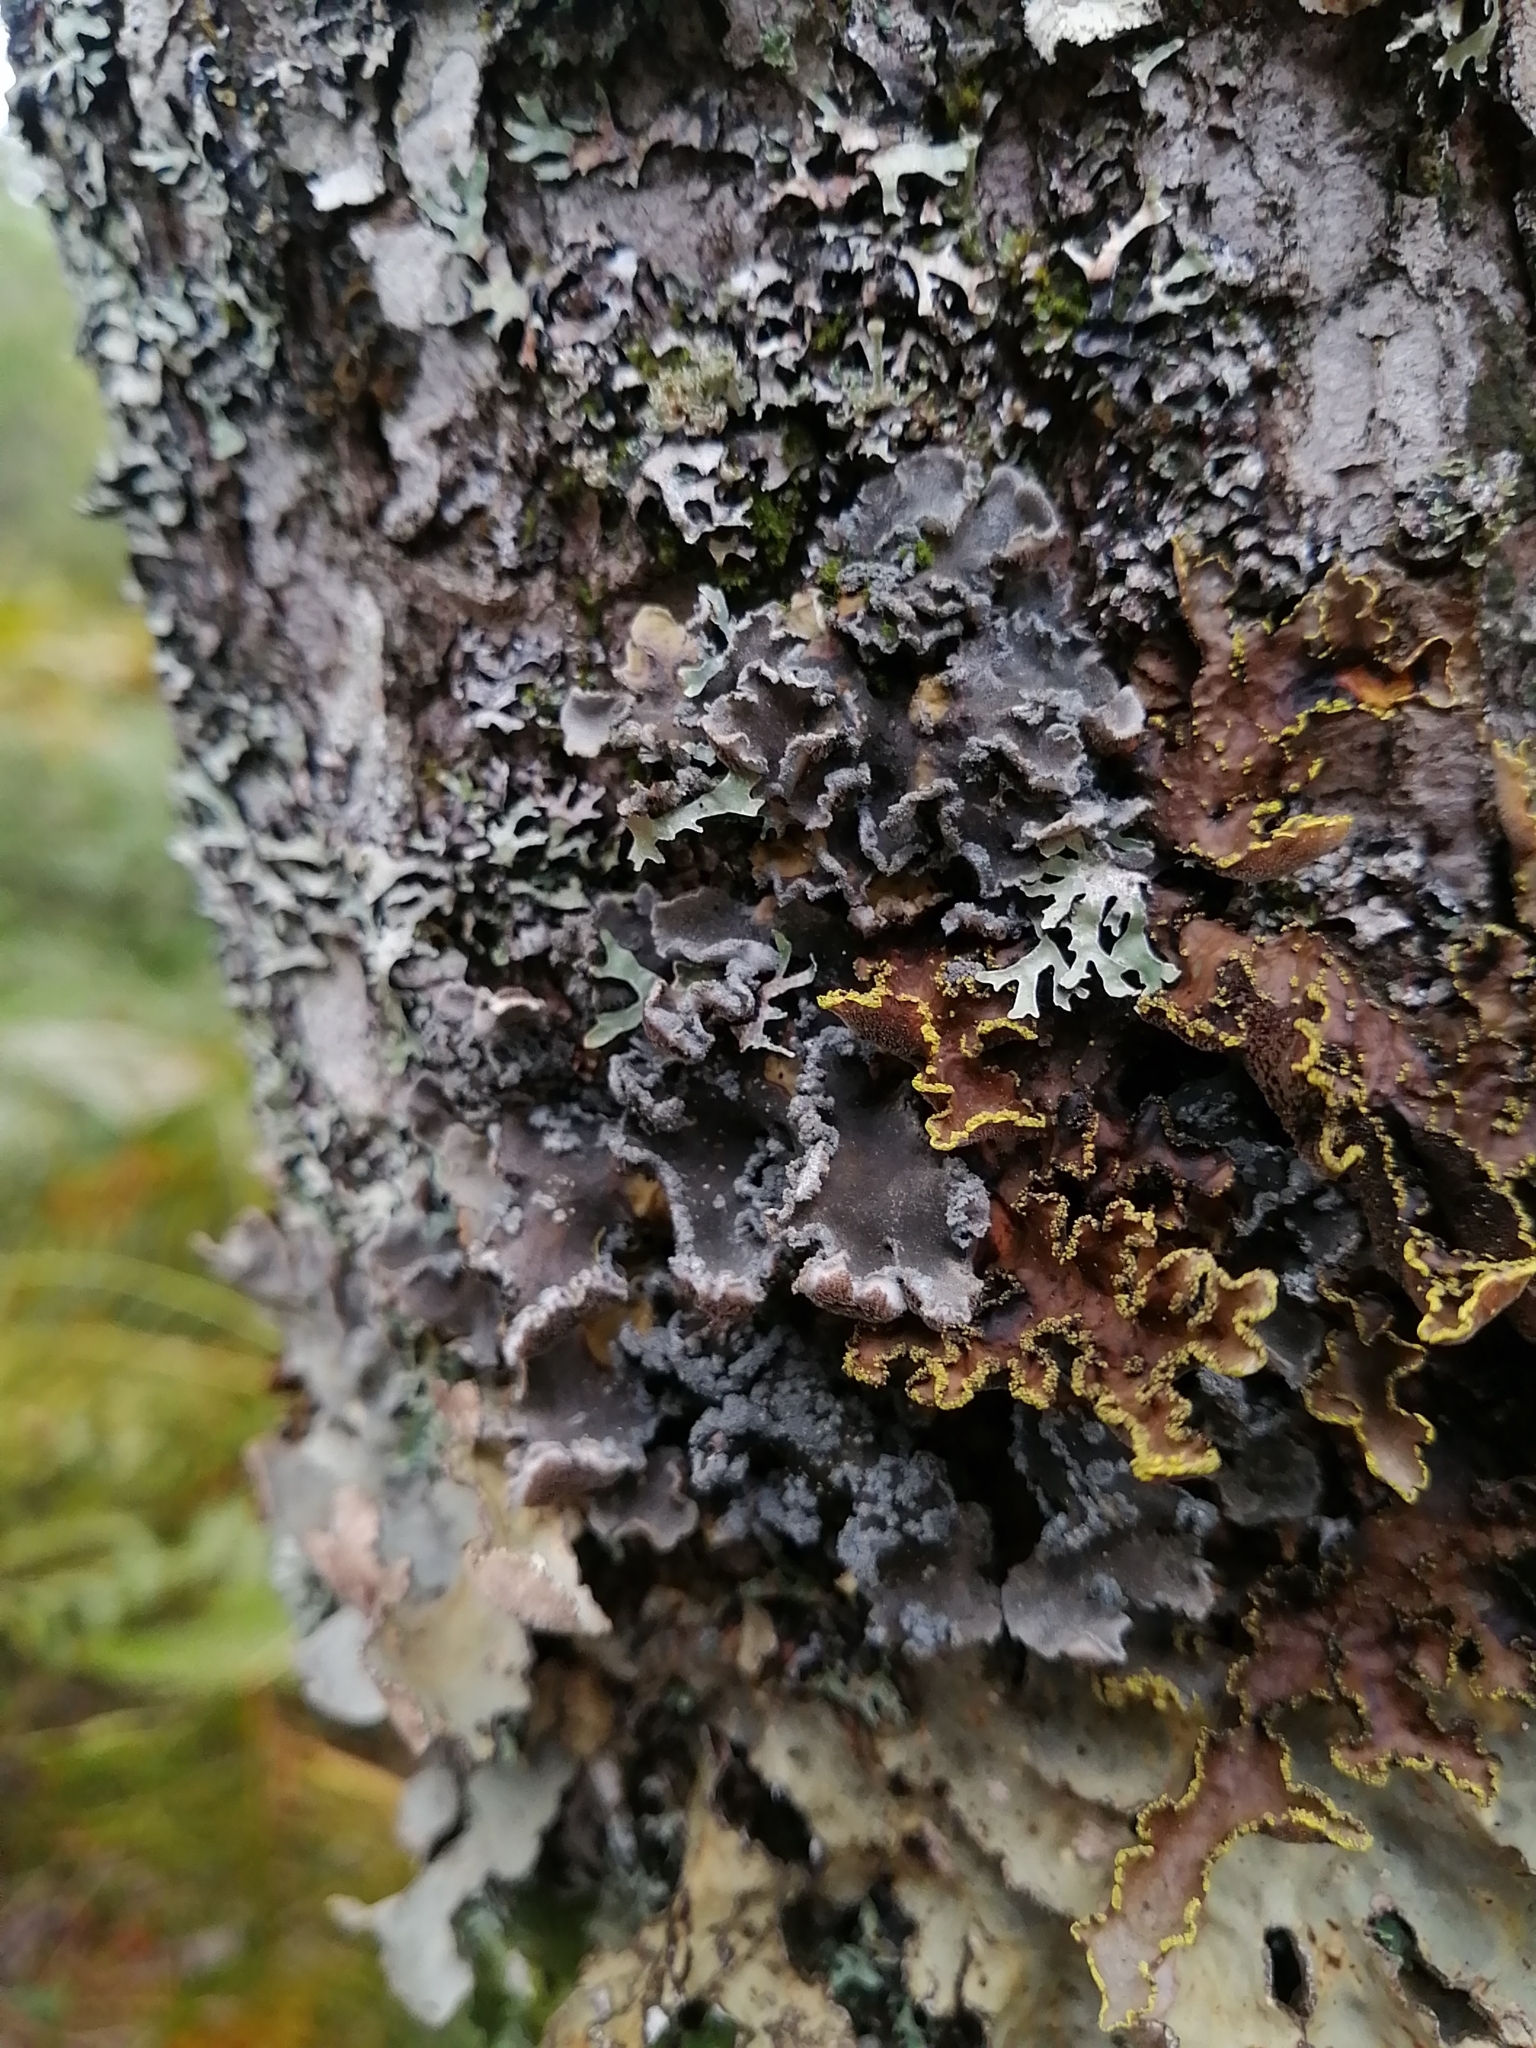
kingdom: Fungi
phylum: Ascomycota
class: Lecanoromycetes
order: Peltigerales
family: Pannariaceae
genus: Erioderma
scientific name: Erioderma mollissimum
